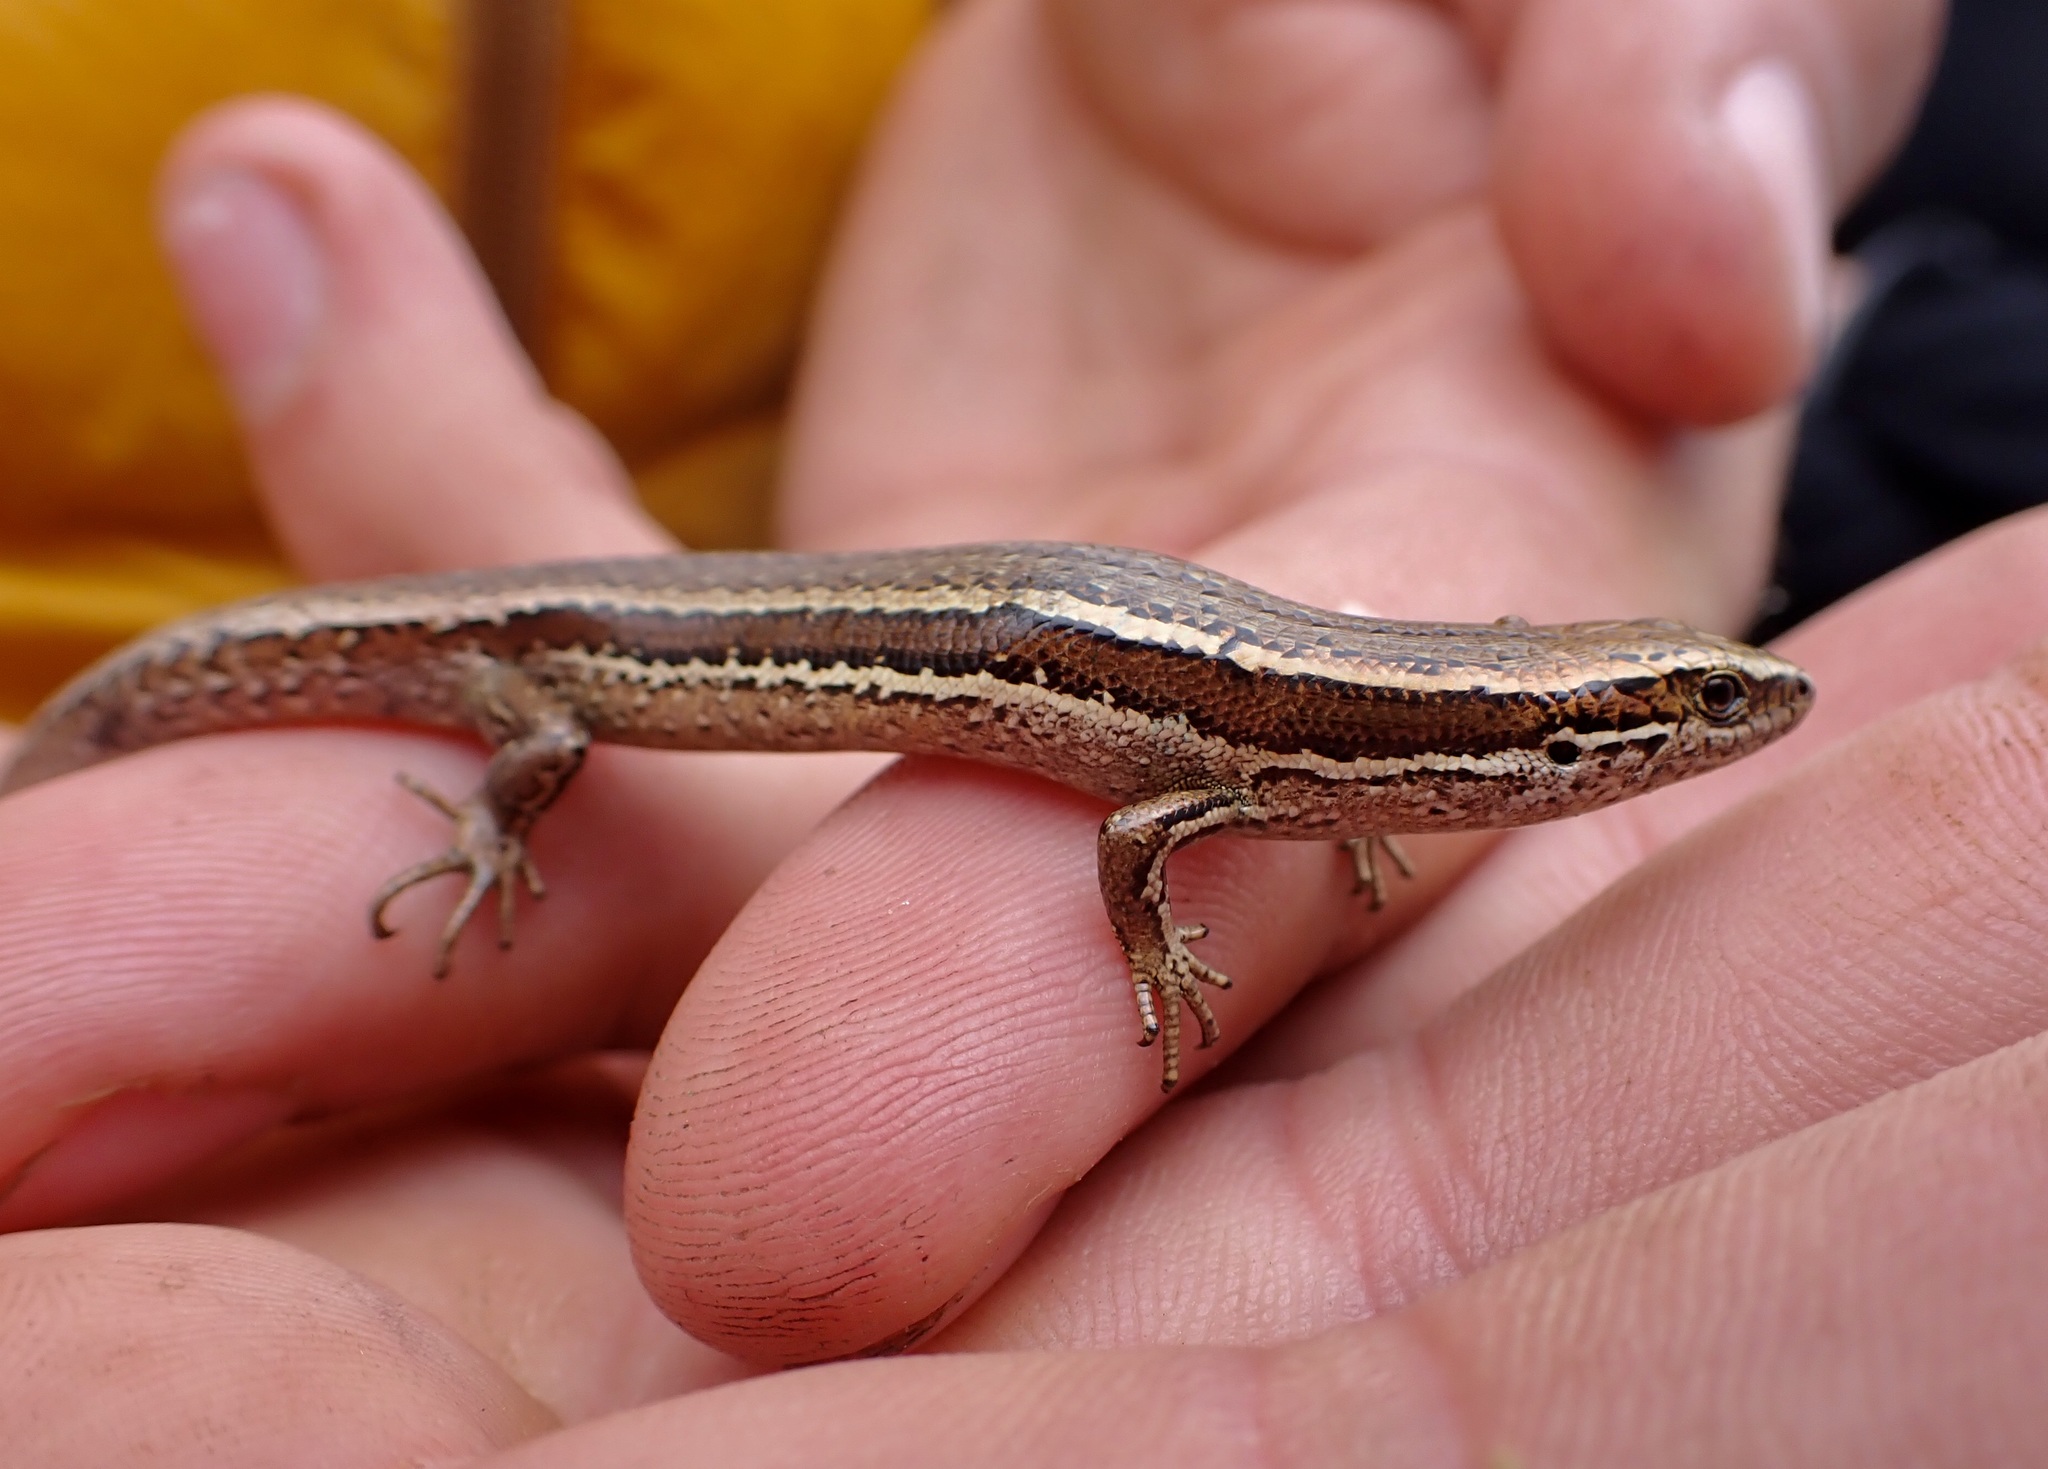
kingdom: Animalia
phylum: Chordata
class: Squamata
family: Scincidae
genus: Oligosoma
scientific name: Oligosoma polychroma
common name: Common new zealand skink
